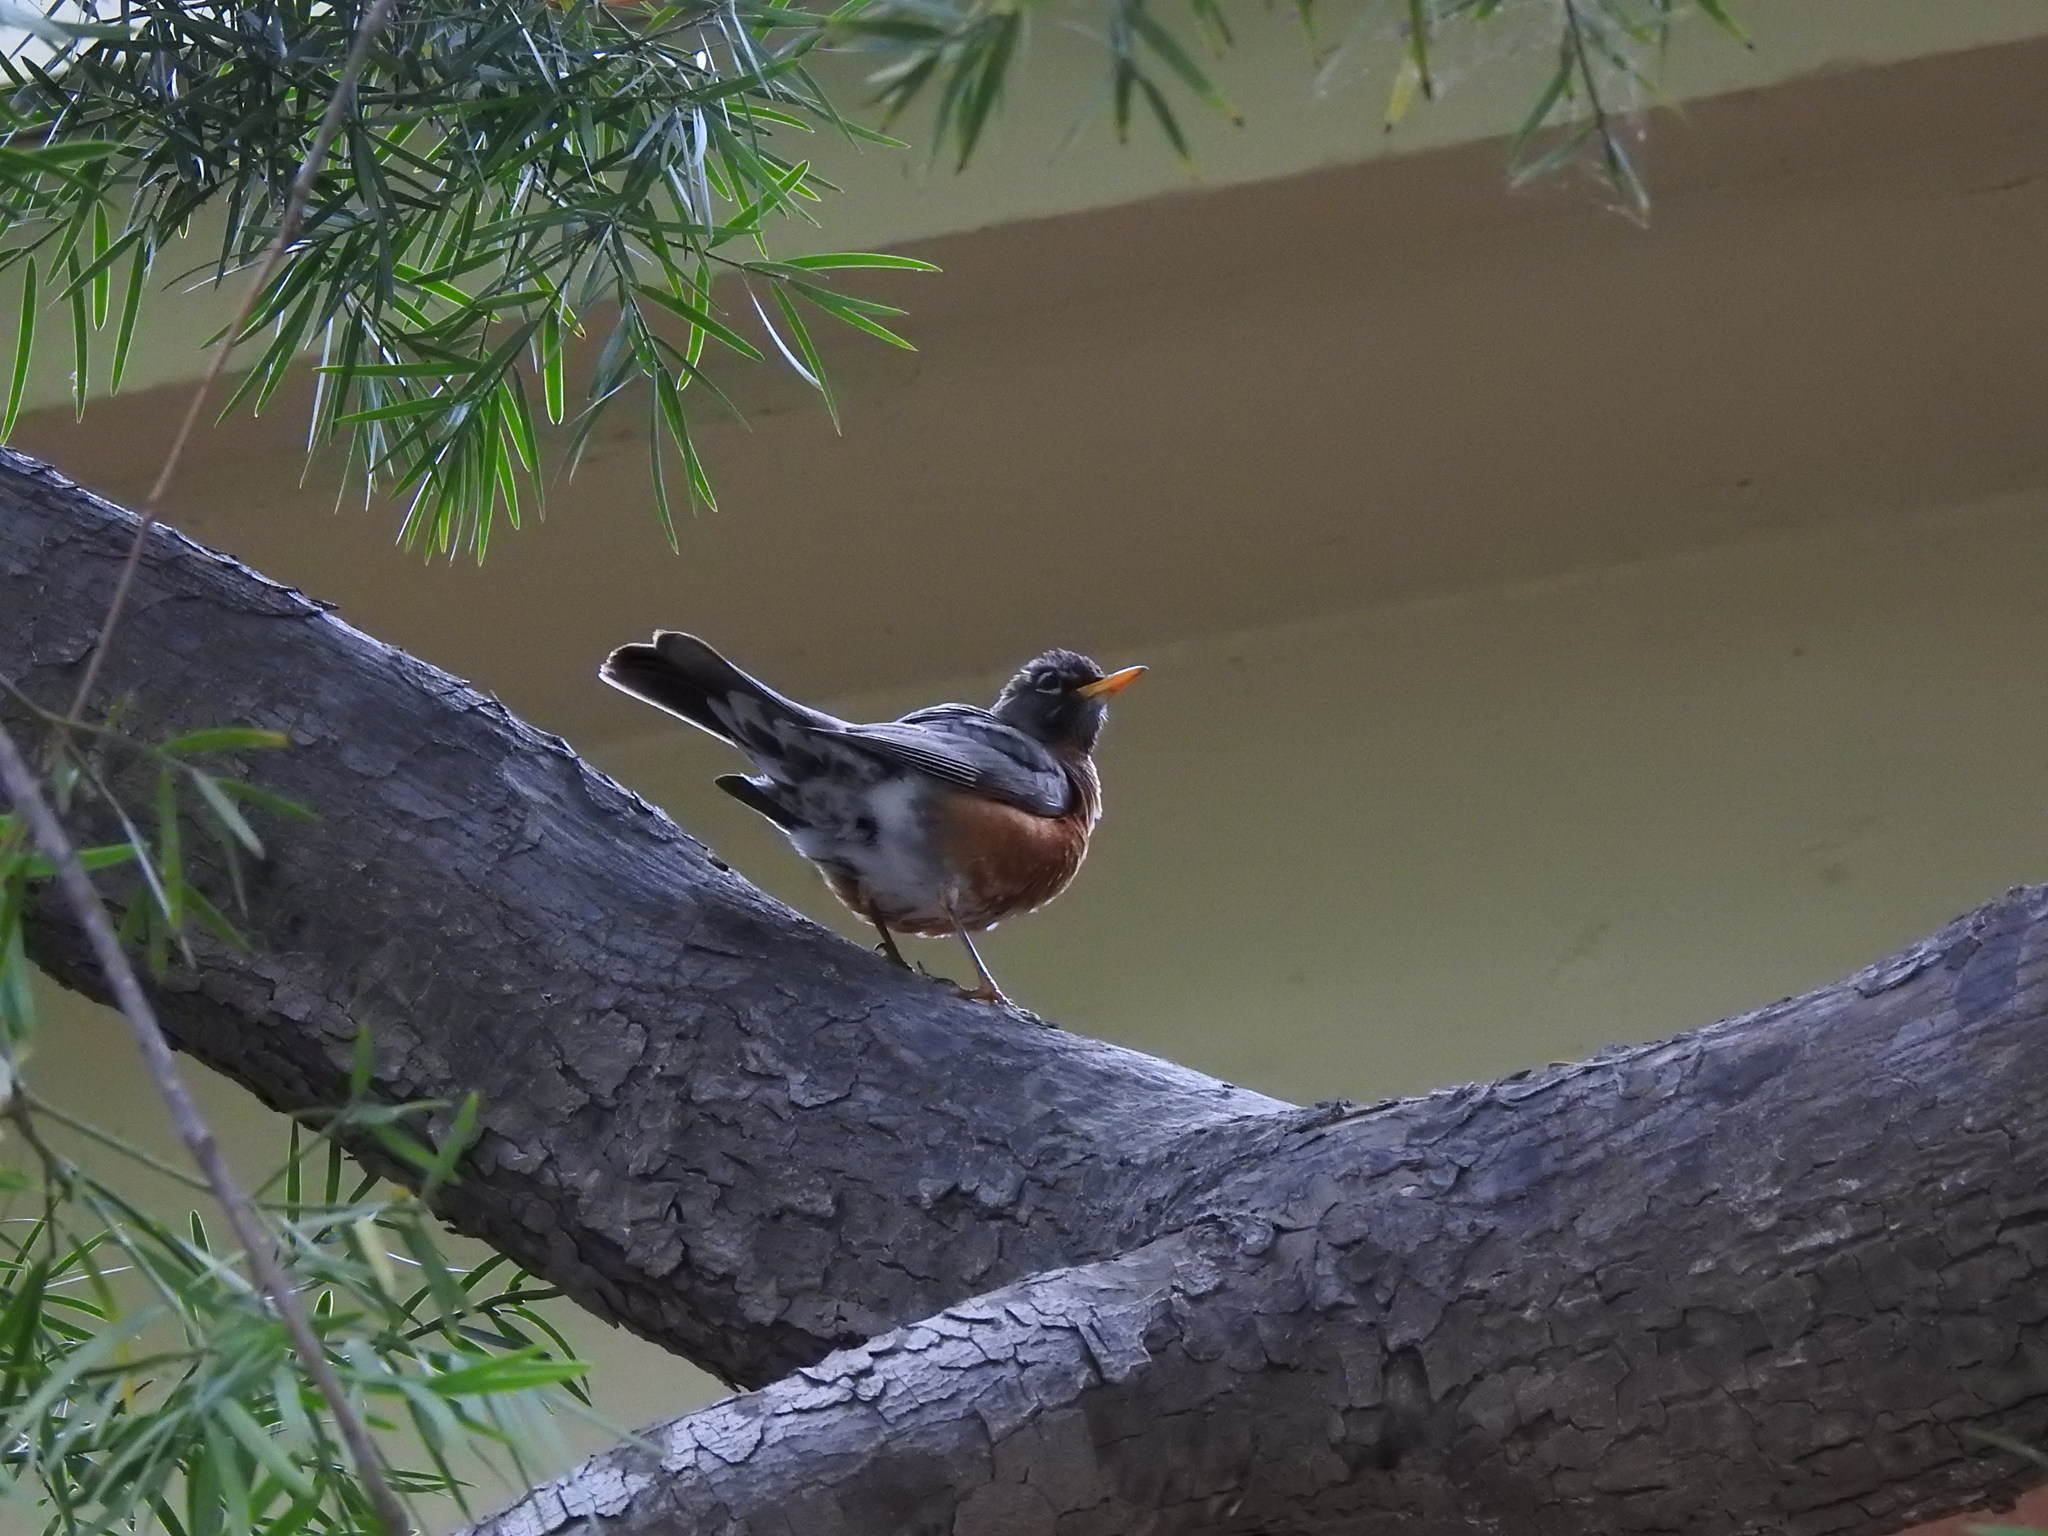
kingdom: Animalia
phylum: Chordata
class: Aves
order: Passeriformes
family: Turdidae
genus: Turdus
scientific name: Turdus migratorius
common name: American robin
